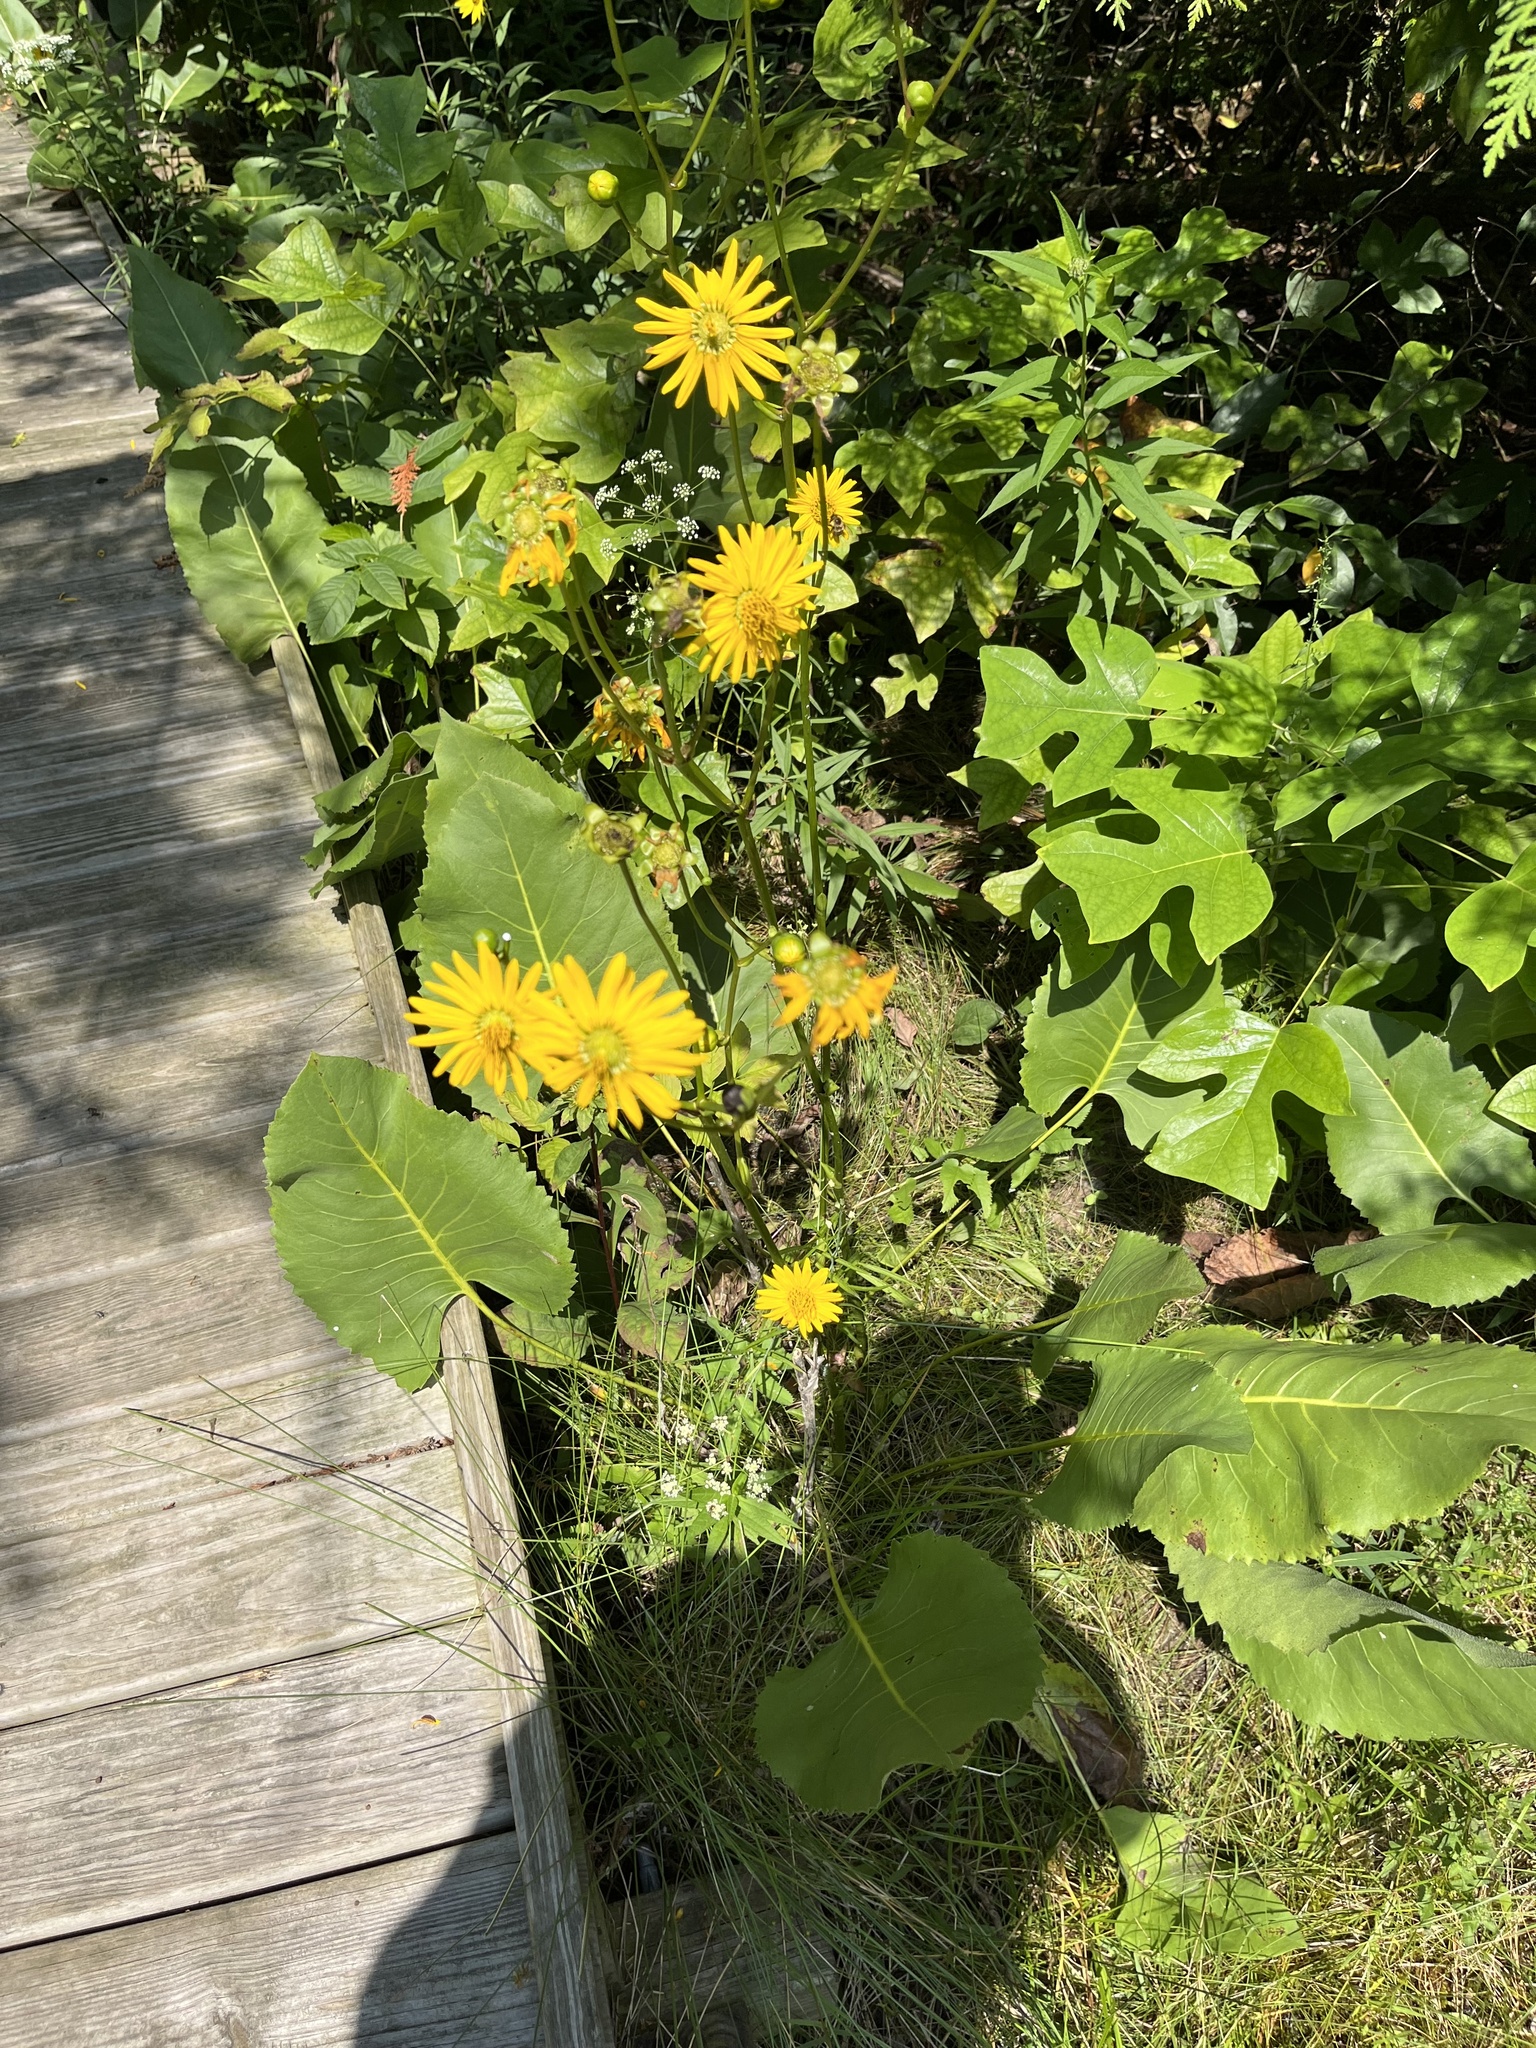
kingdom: Plantae
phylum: Tracheophyta
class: Magnoliopsida
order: Asterales
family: Asteraceae
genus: Silphium
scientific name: Silphium terebinthinaceum
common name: Basal-leaf rosinweed
